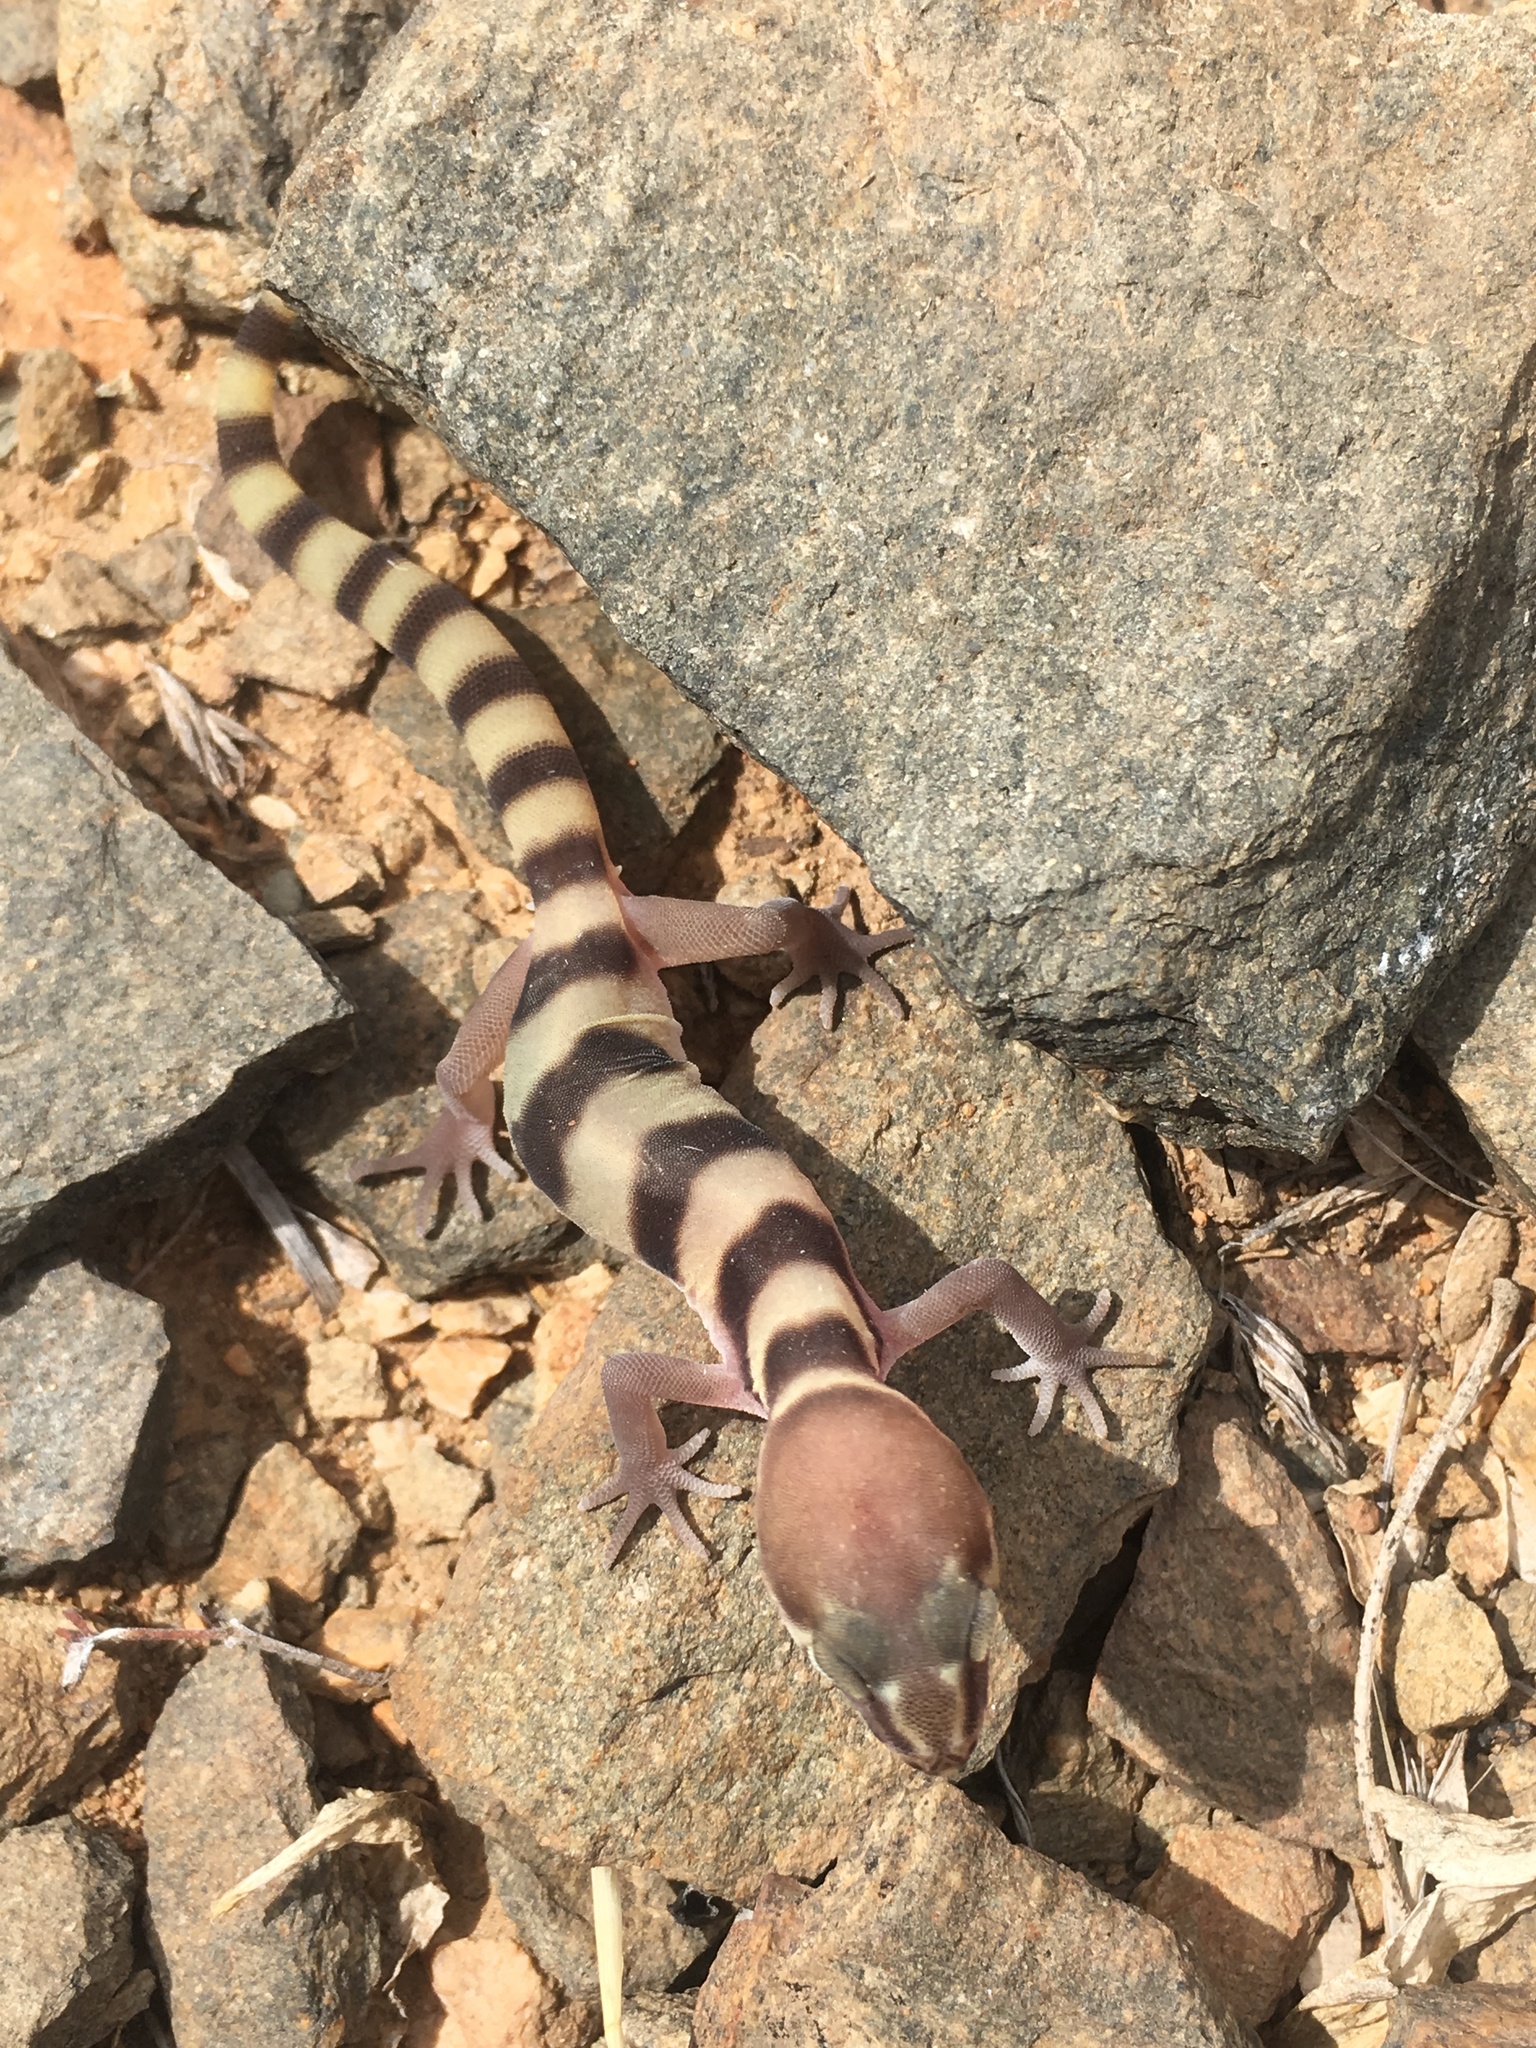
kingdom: Animalia
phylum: Chordata
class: Squamata
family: Eublepharidae
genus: Coleonyx
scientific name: Coleonyx variegatus
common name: Western banded gecko
